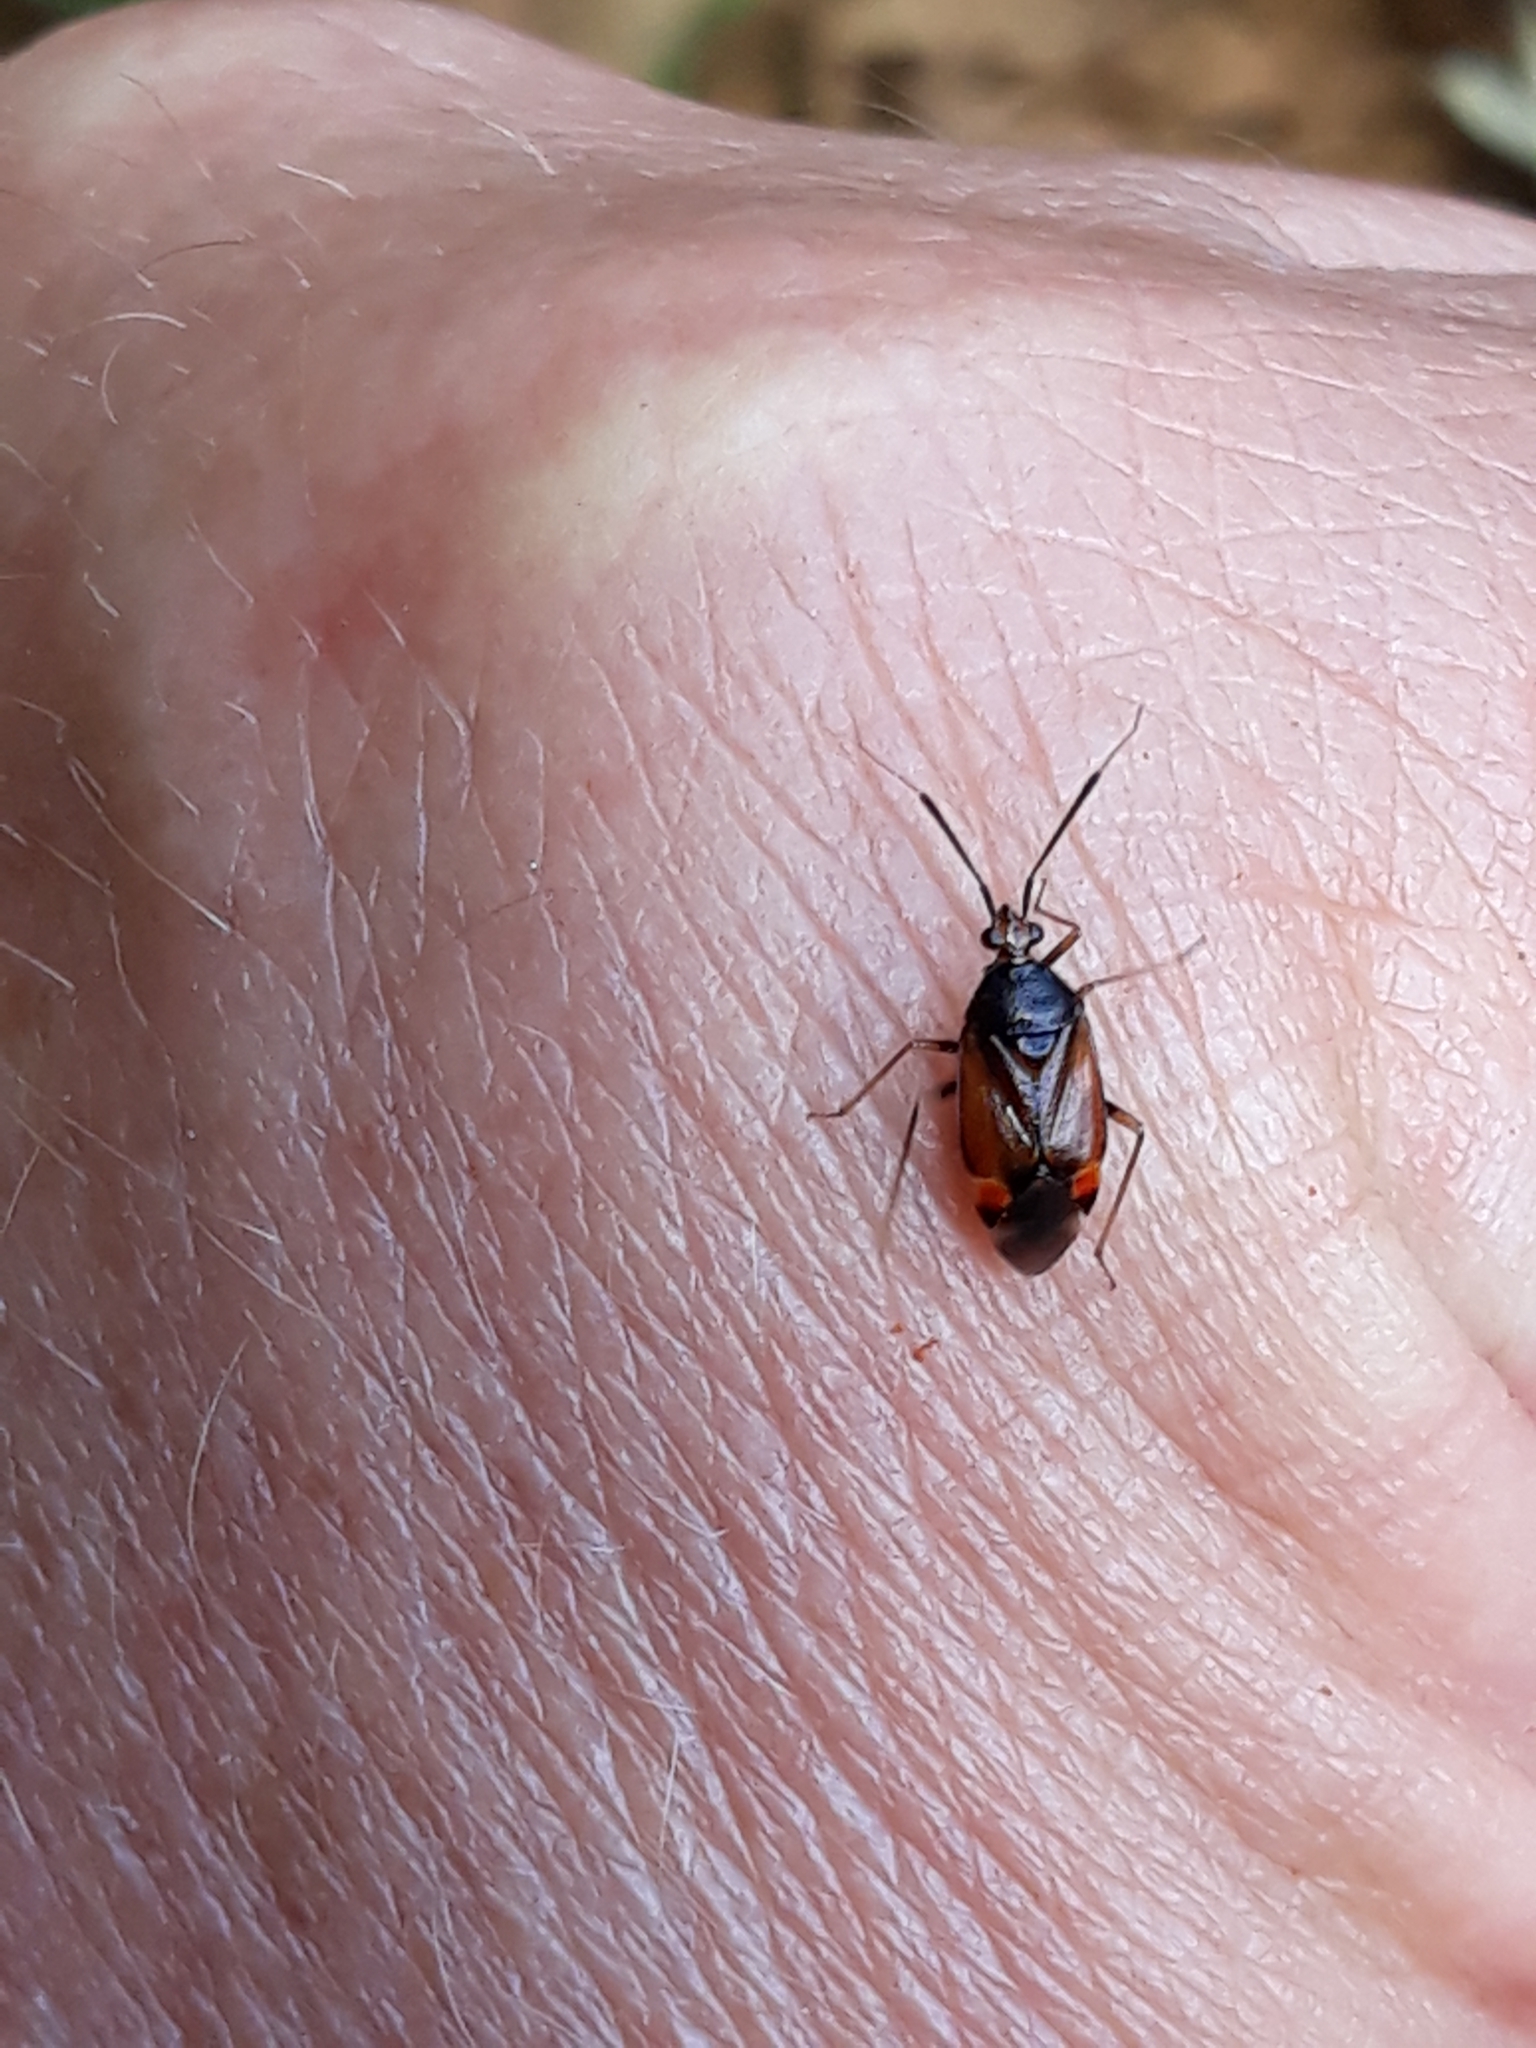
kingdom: Animalia
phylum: Arthropoda
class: Insecta
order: Hemiptera
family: Miridae
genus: Deraeocoris
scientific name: Deraeocoris ruber
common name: Plant bug
